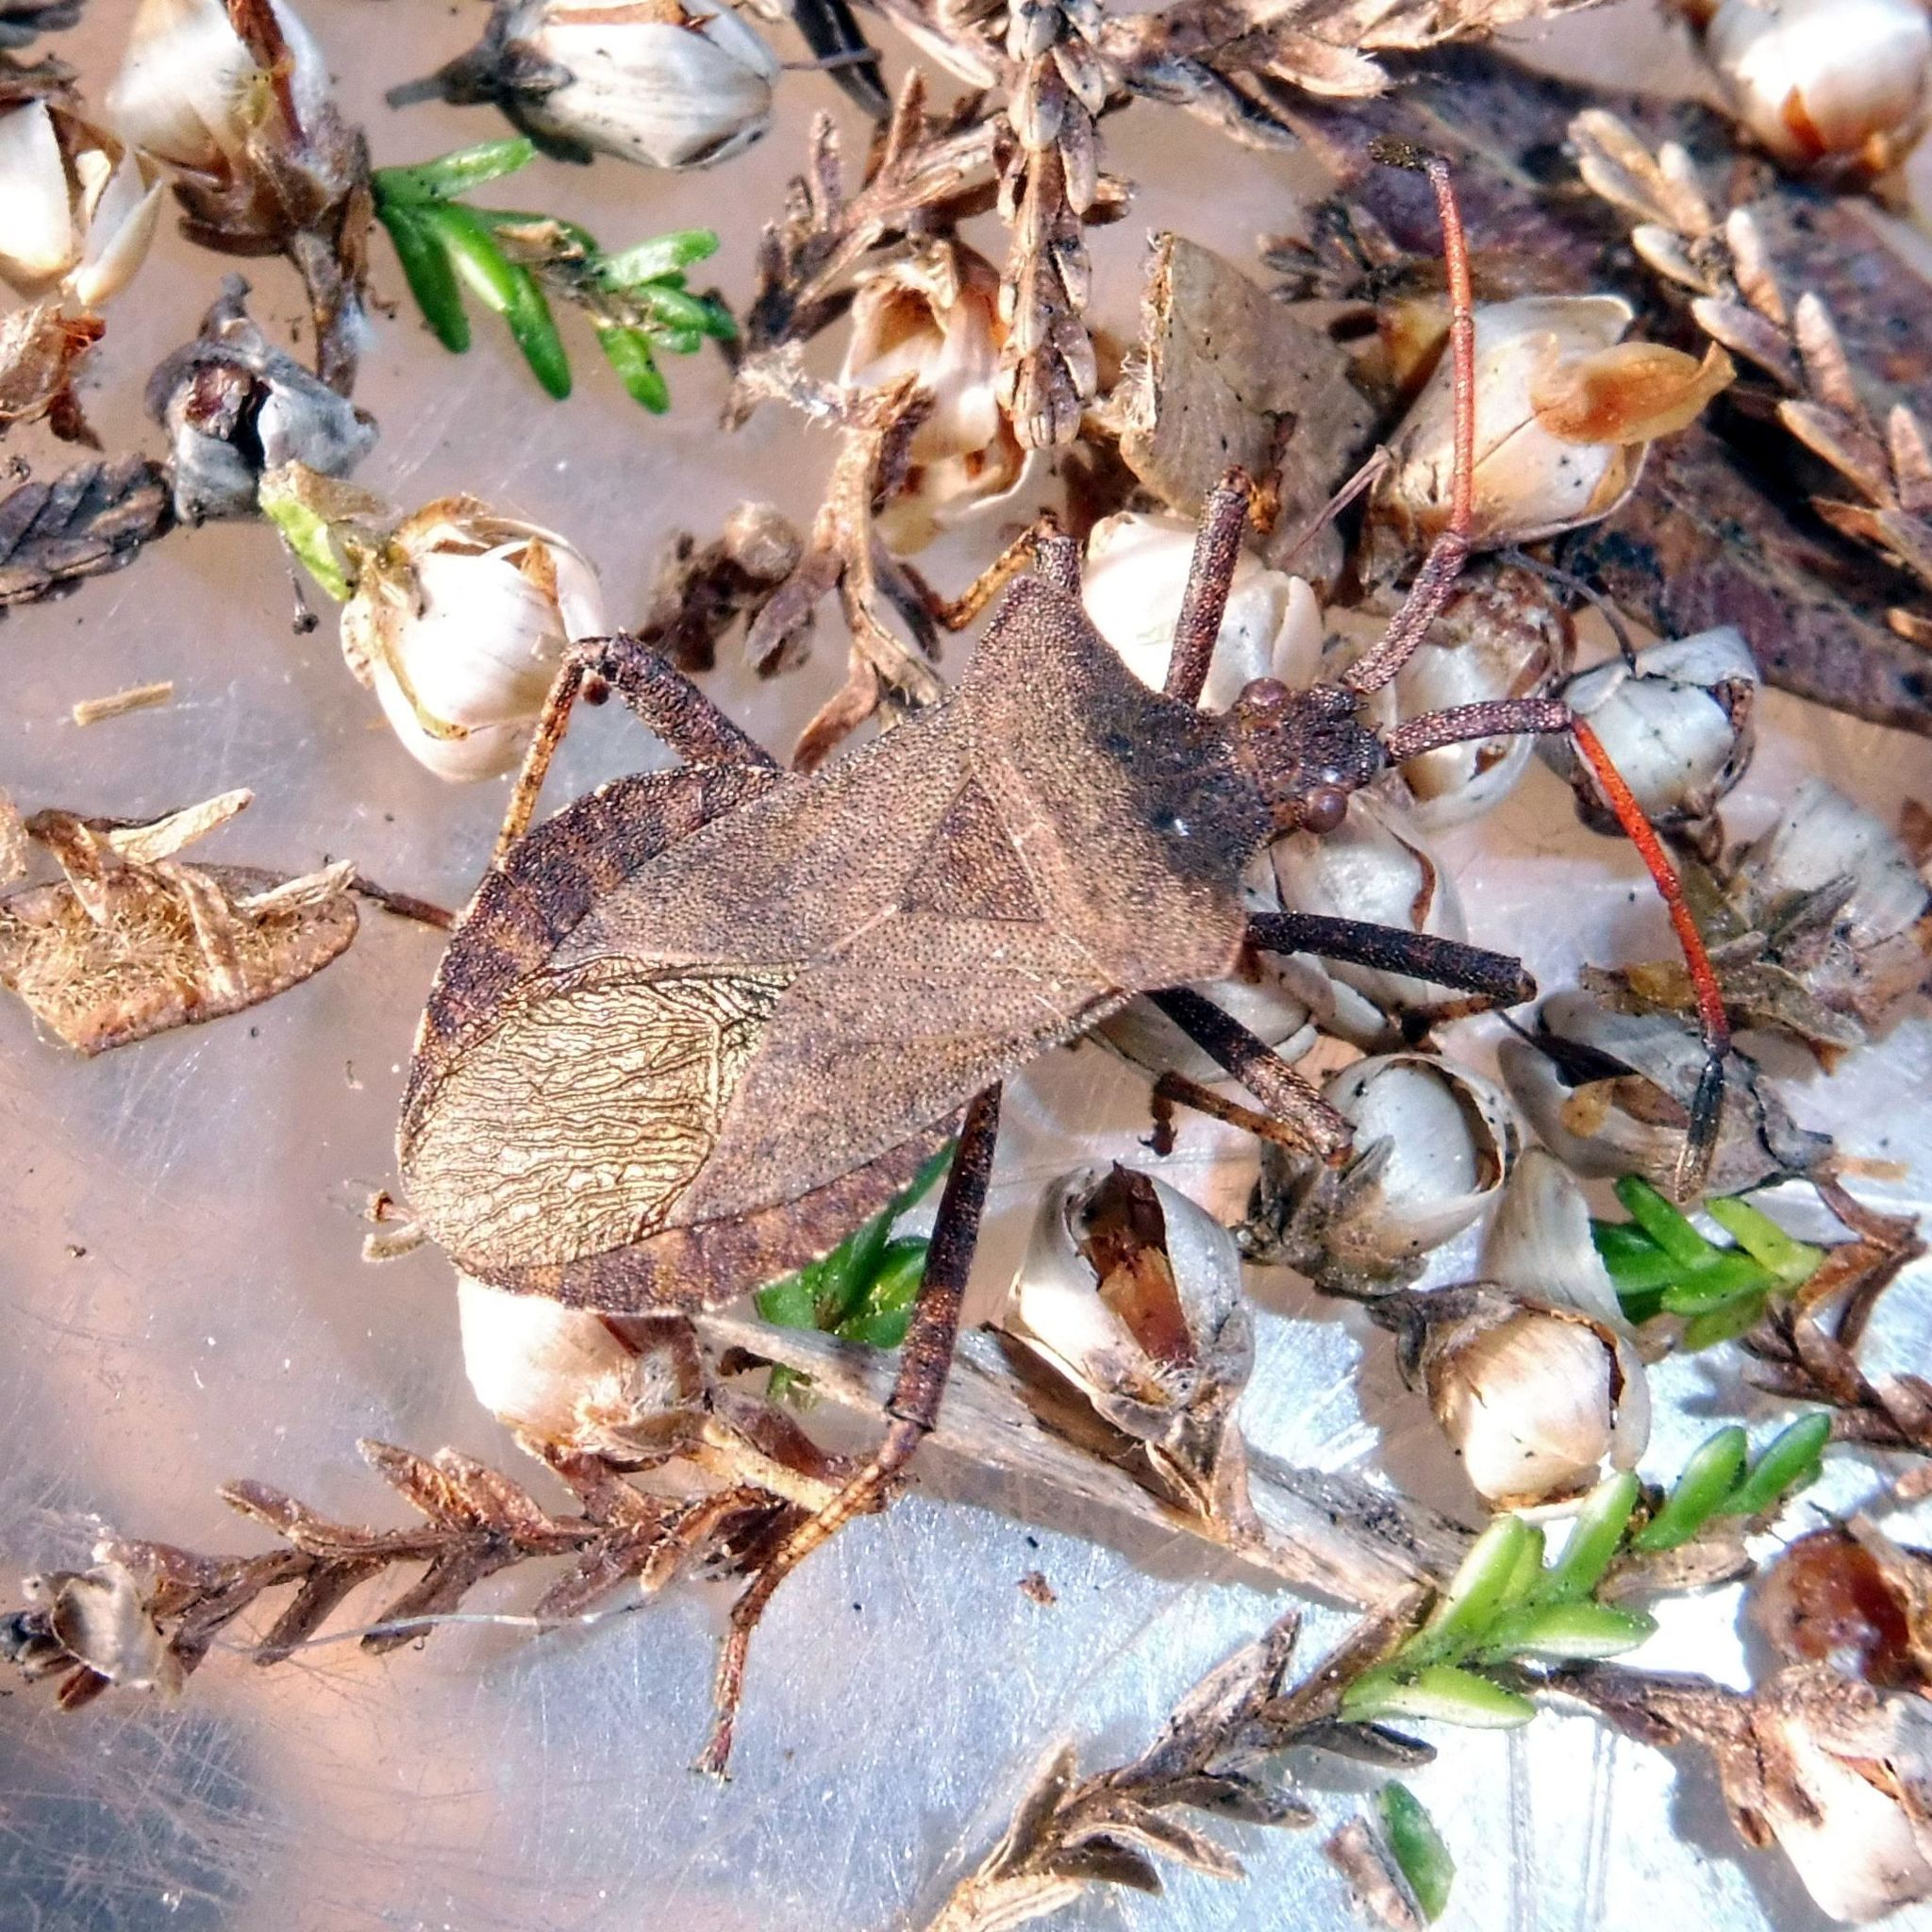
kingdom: Animalia
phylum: Arthropoda
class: Insecta
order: Hemiptera
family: Coreidae
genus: Coreus
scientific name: Coreus marginatus
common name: Dock bug
